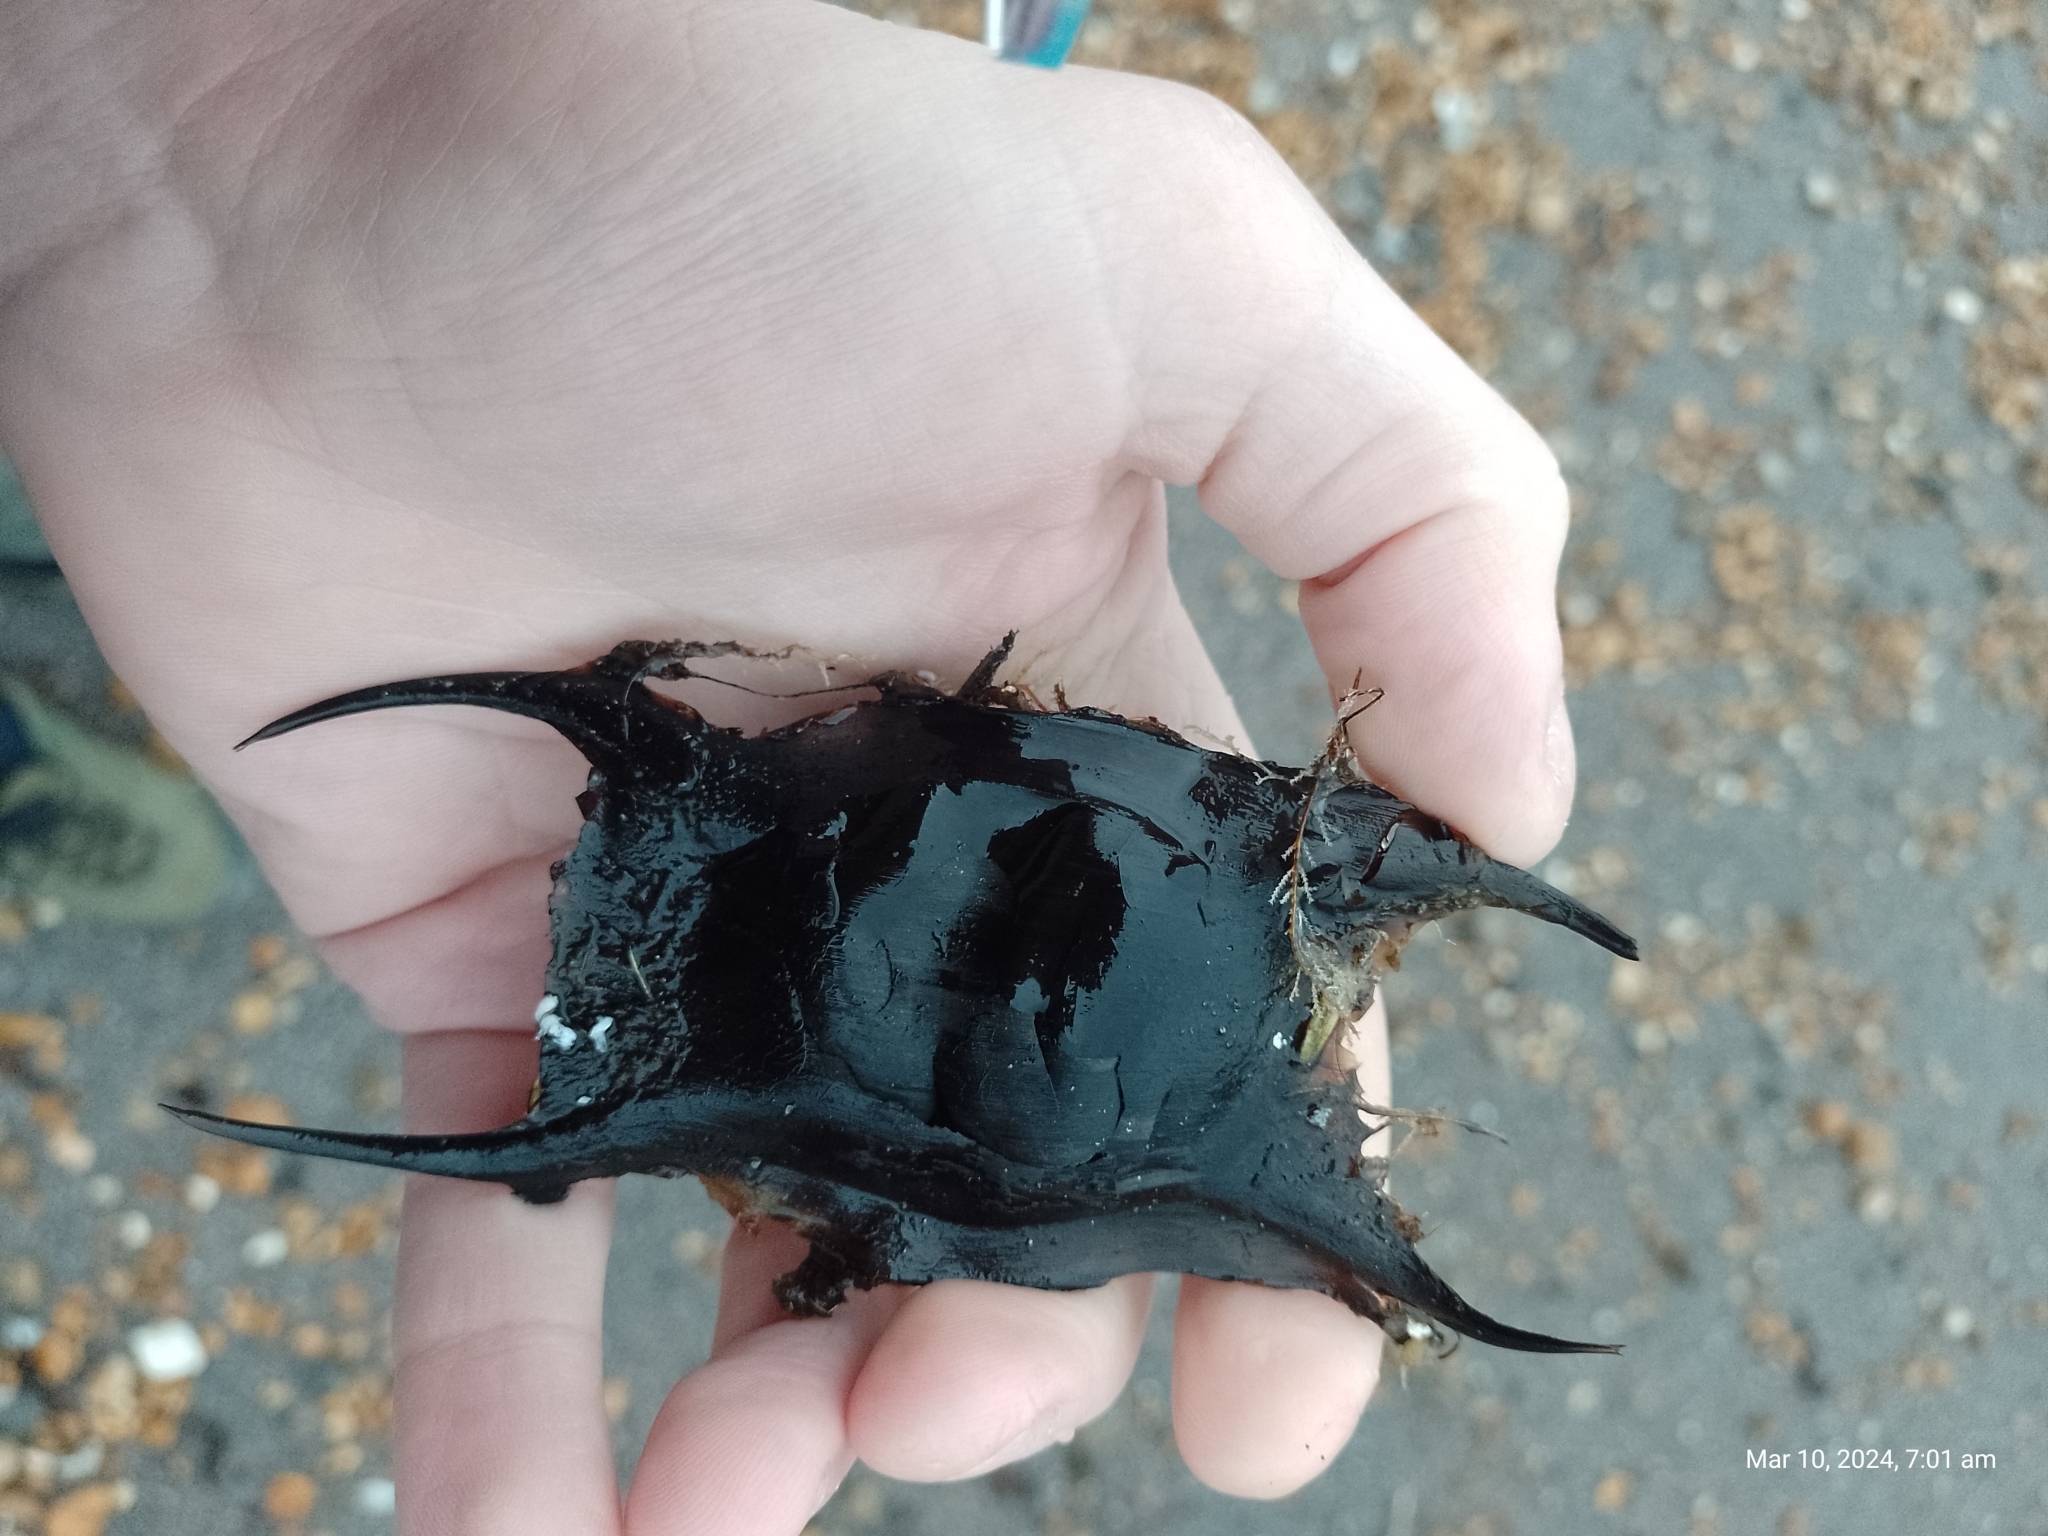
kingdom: Animalia
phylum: Chordata
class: Elasmobranchii
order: Rajiformes
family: Rajidae
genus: Raja
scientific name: Raja clavata
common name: Thornback ray
